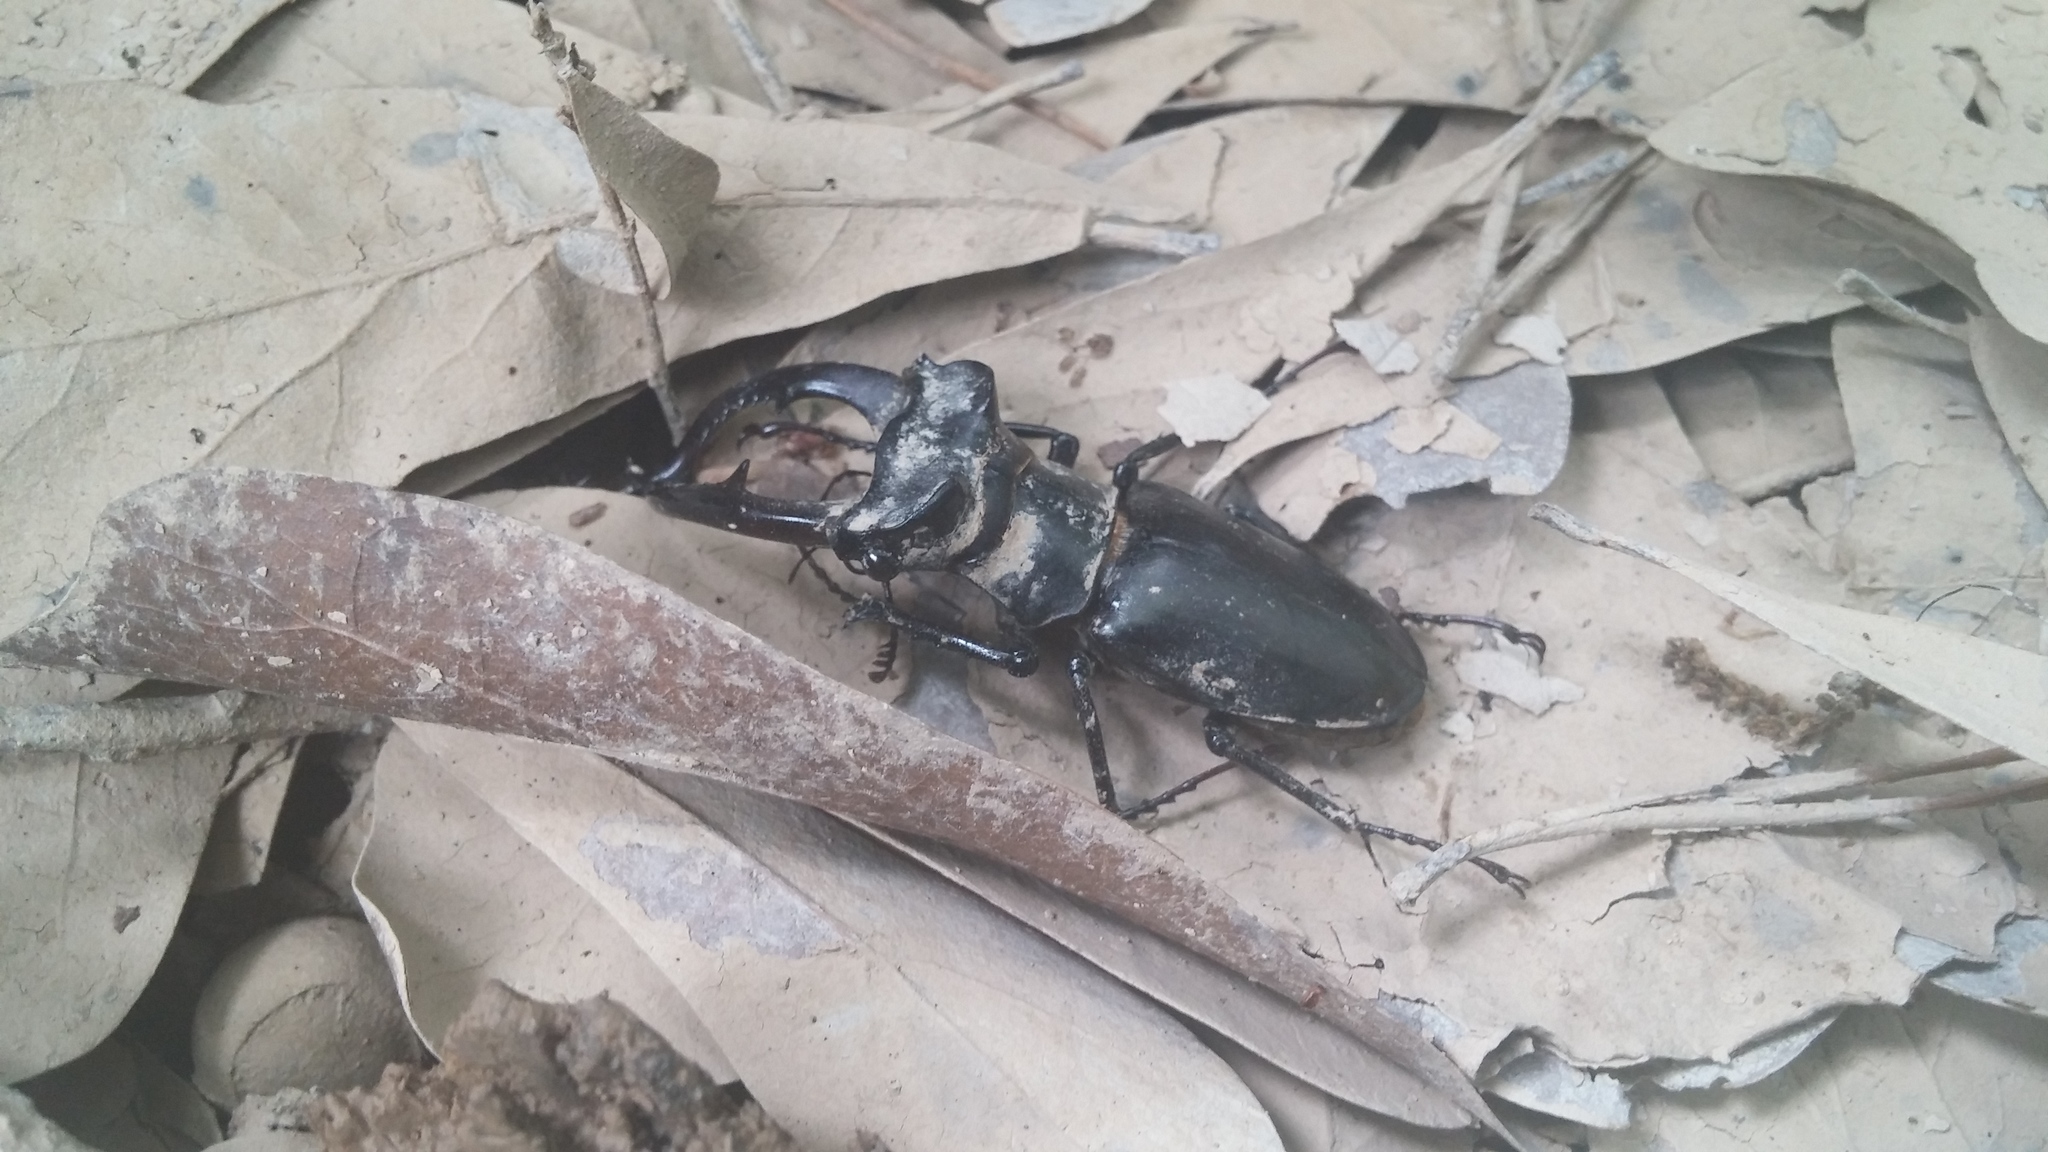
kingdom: Animalia
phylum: Arthropoda
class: Insecta
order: Coleoptera
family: Lucanidae
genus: Lucanus
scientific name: Lucanus elaphus
